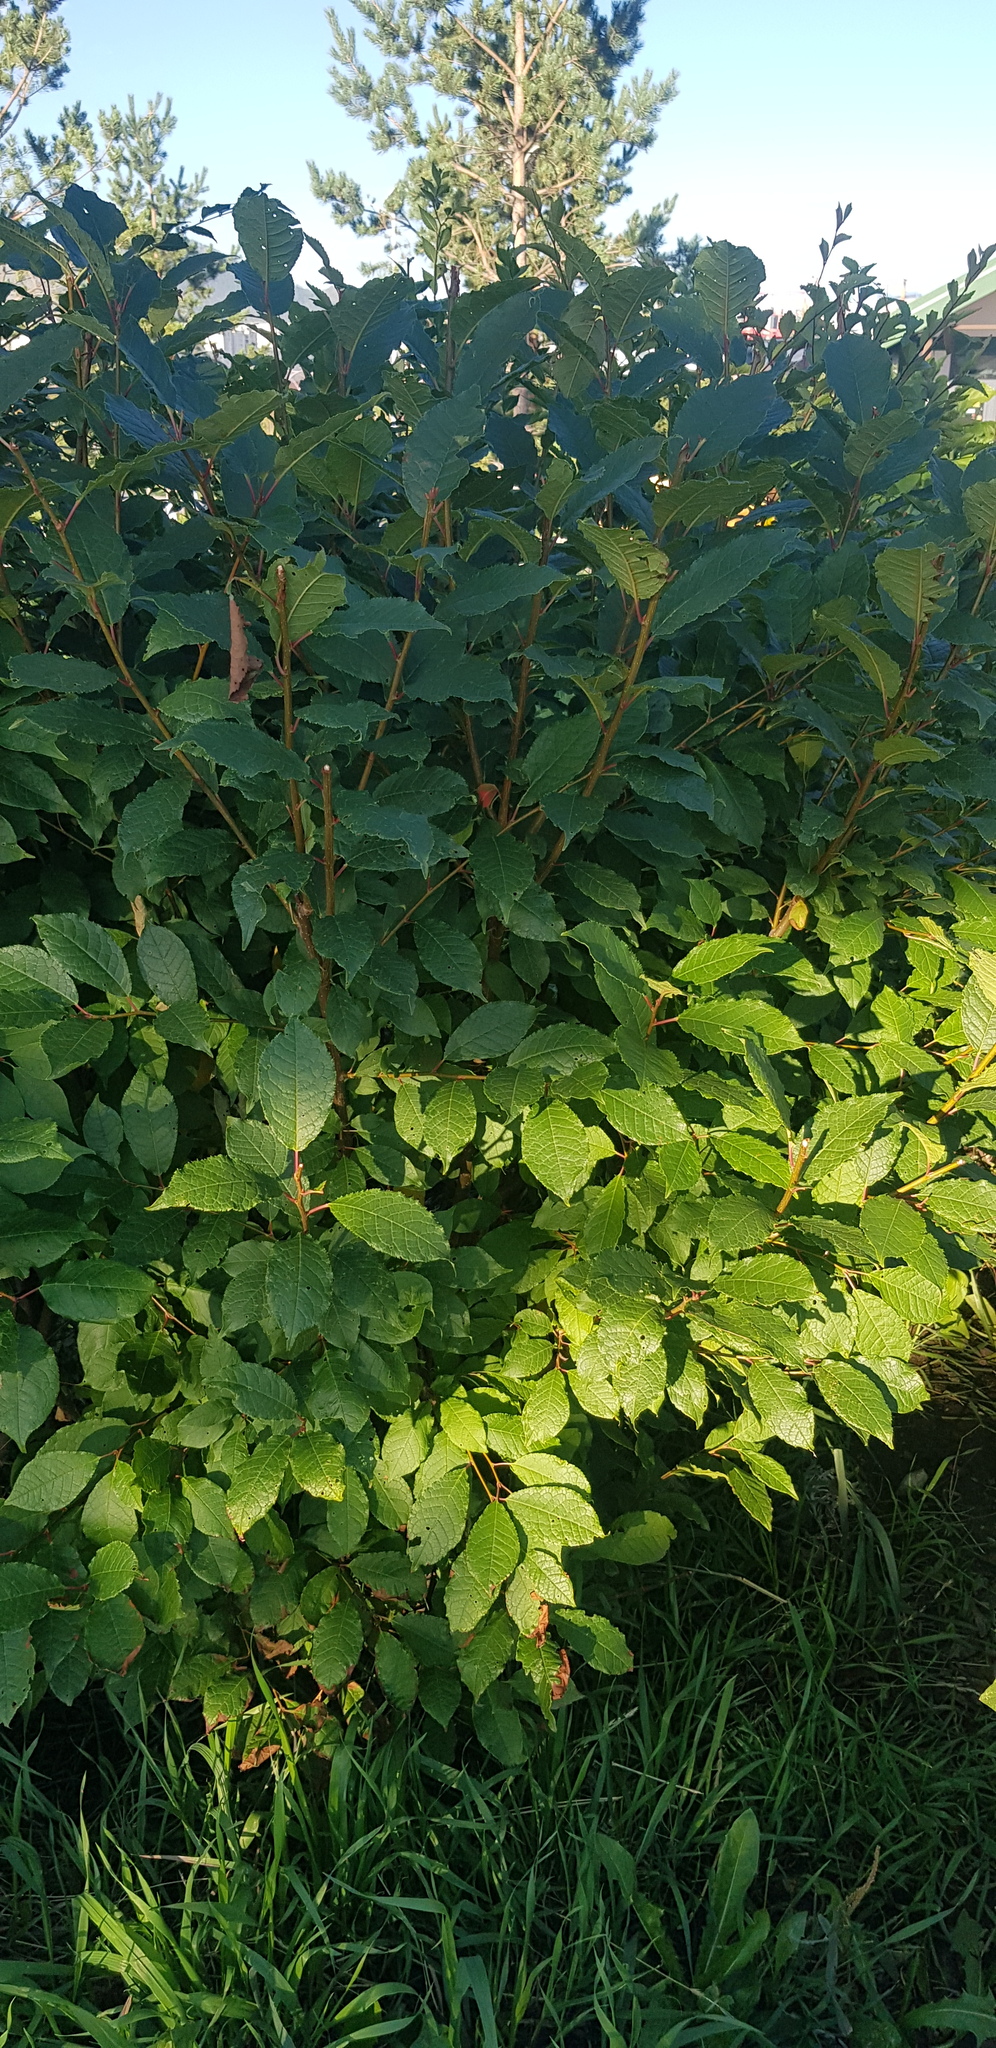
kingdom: Plantae
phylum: Tracheophyta
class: Magnoliopsida
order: Rosales
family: Rosaceae
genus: Prunus
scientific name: Prunus padus
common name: Bird cherry
